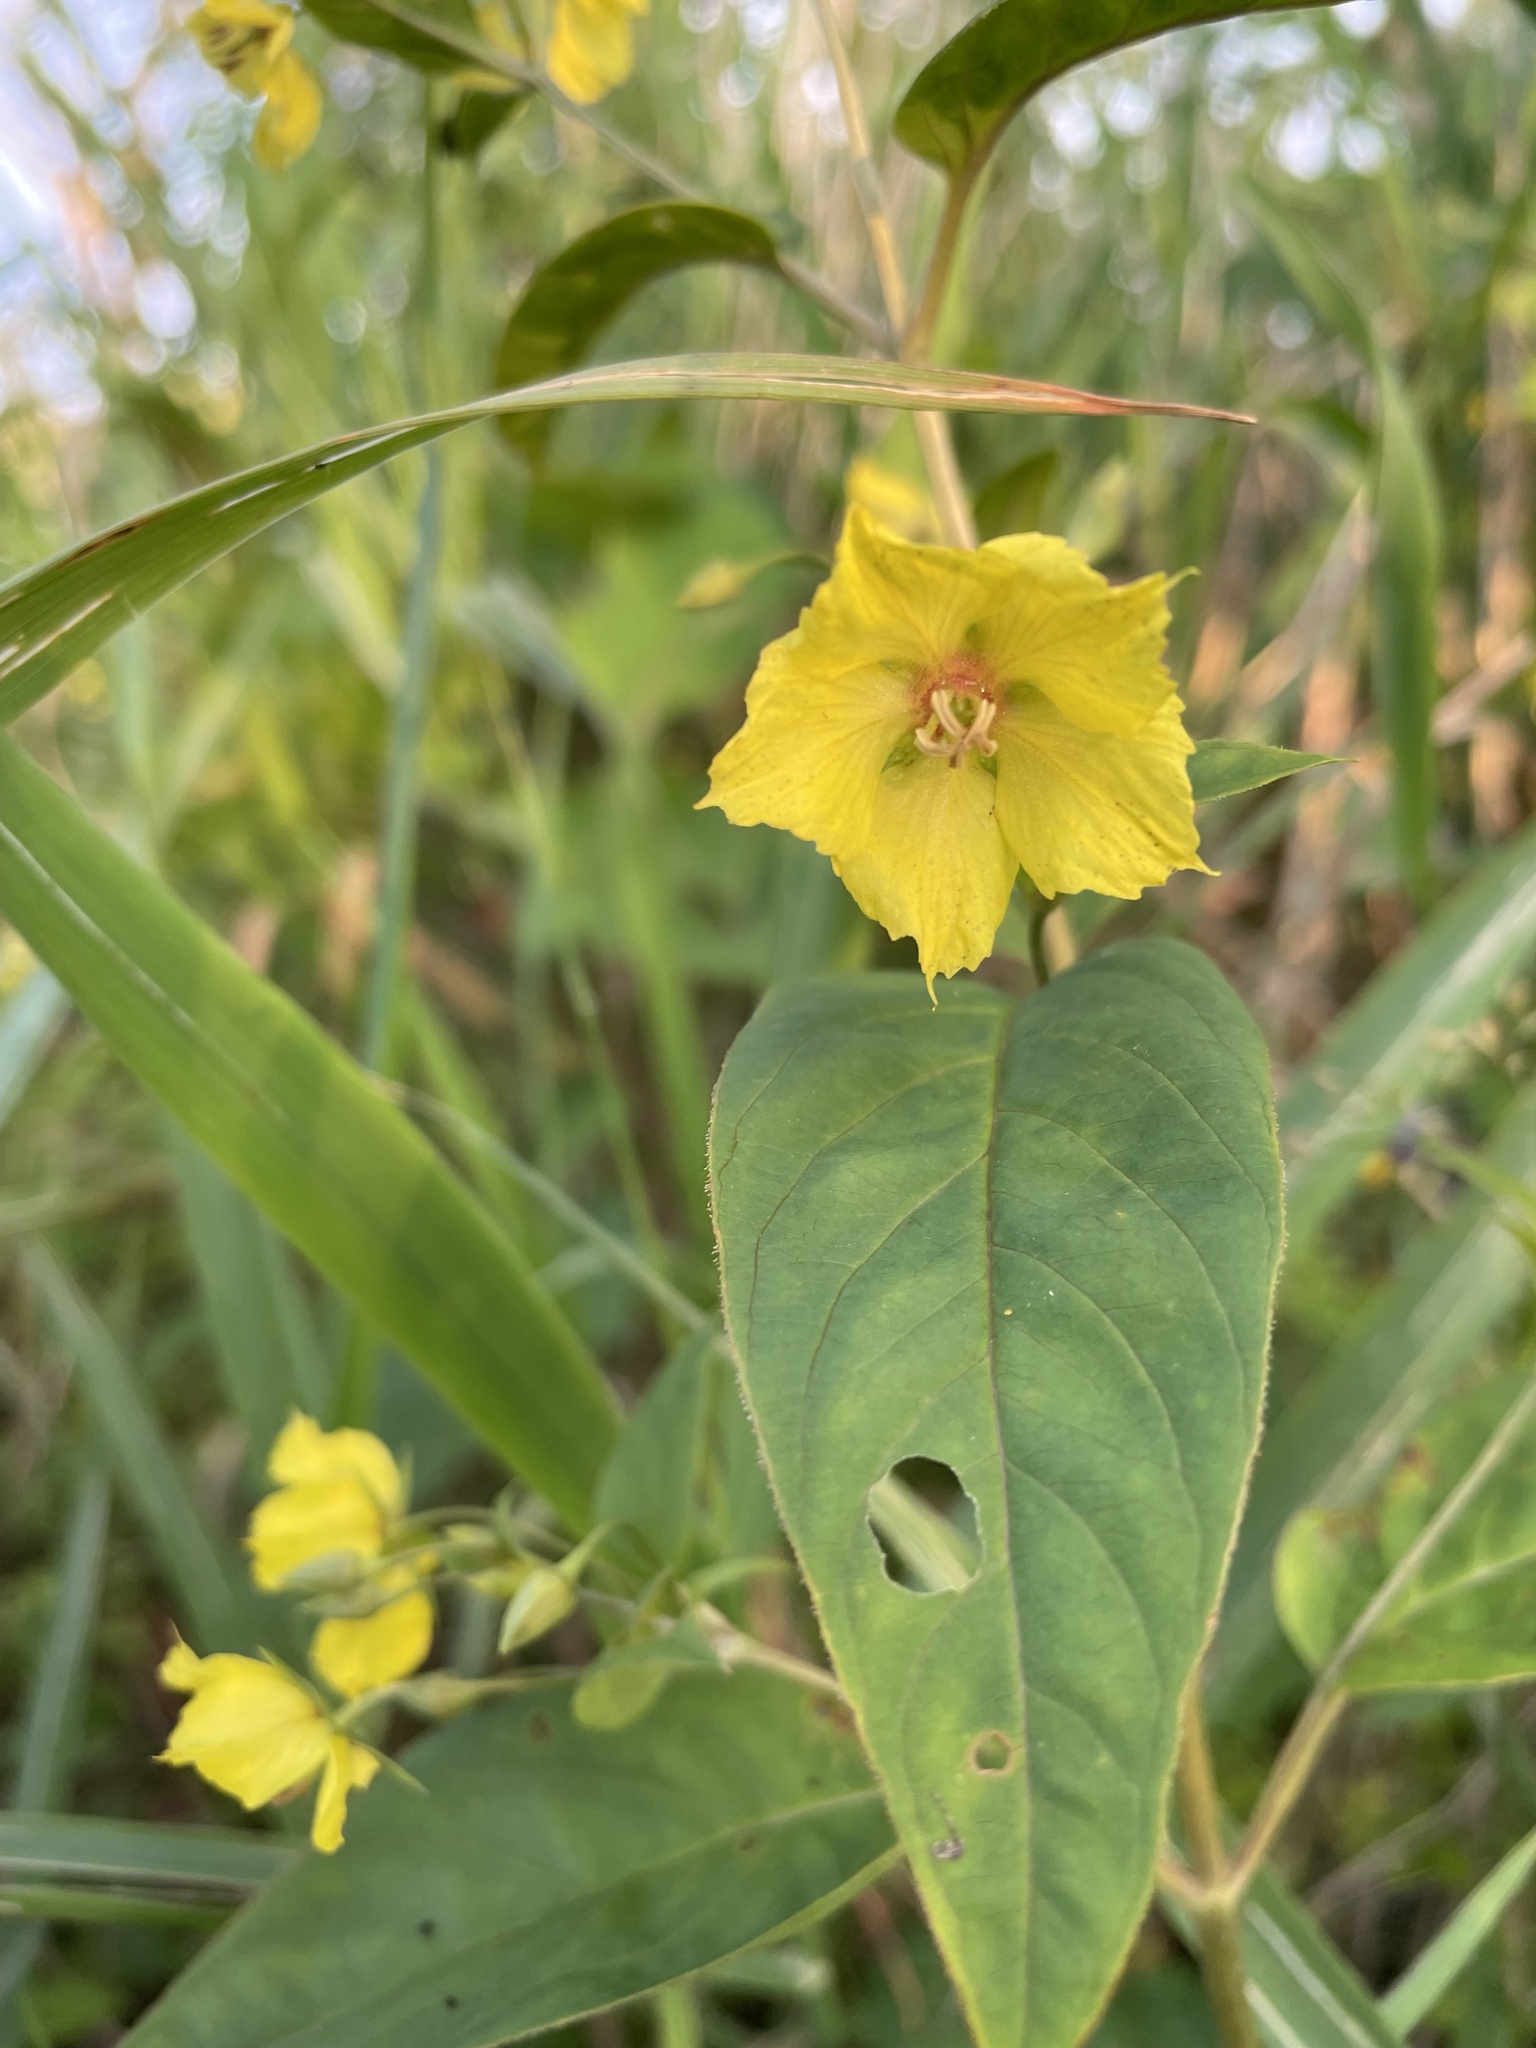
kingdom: Plantae
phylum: Tracheophyta
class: Magnoliopsida
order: Ericales
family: Primulaceae
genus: Lysimachia
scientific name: Lysimachia ciliata
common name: Fringed loosestrife
